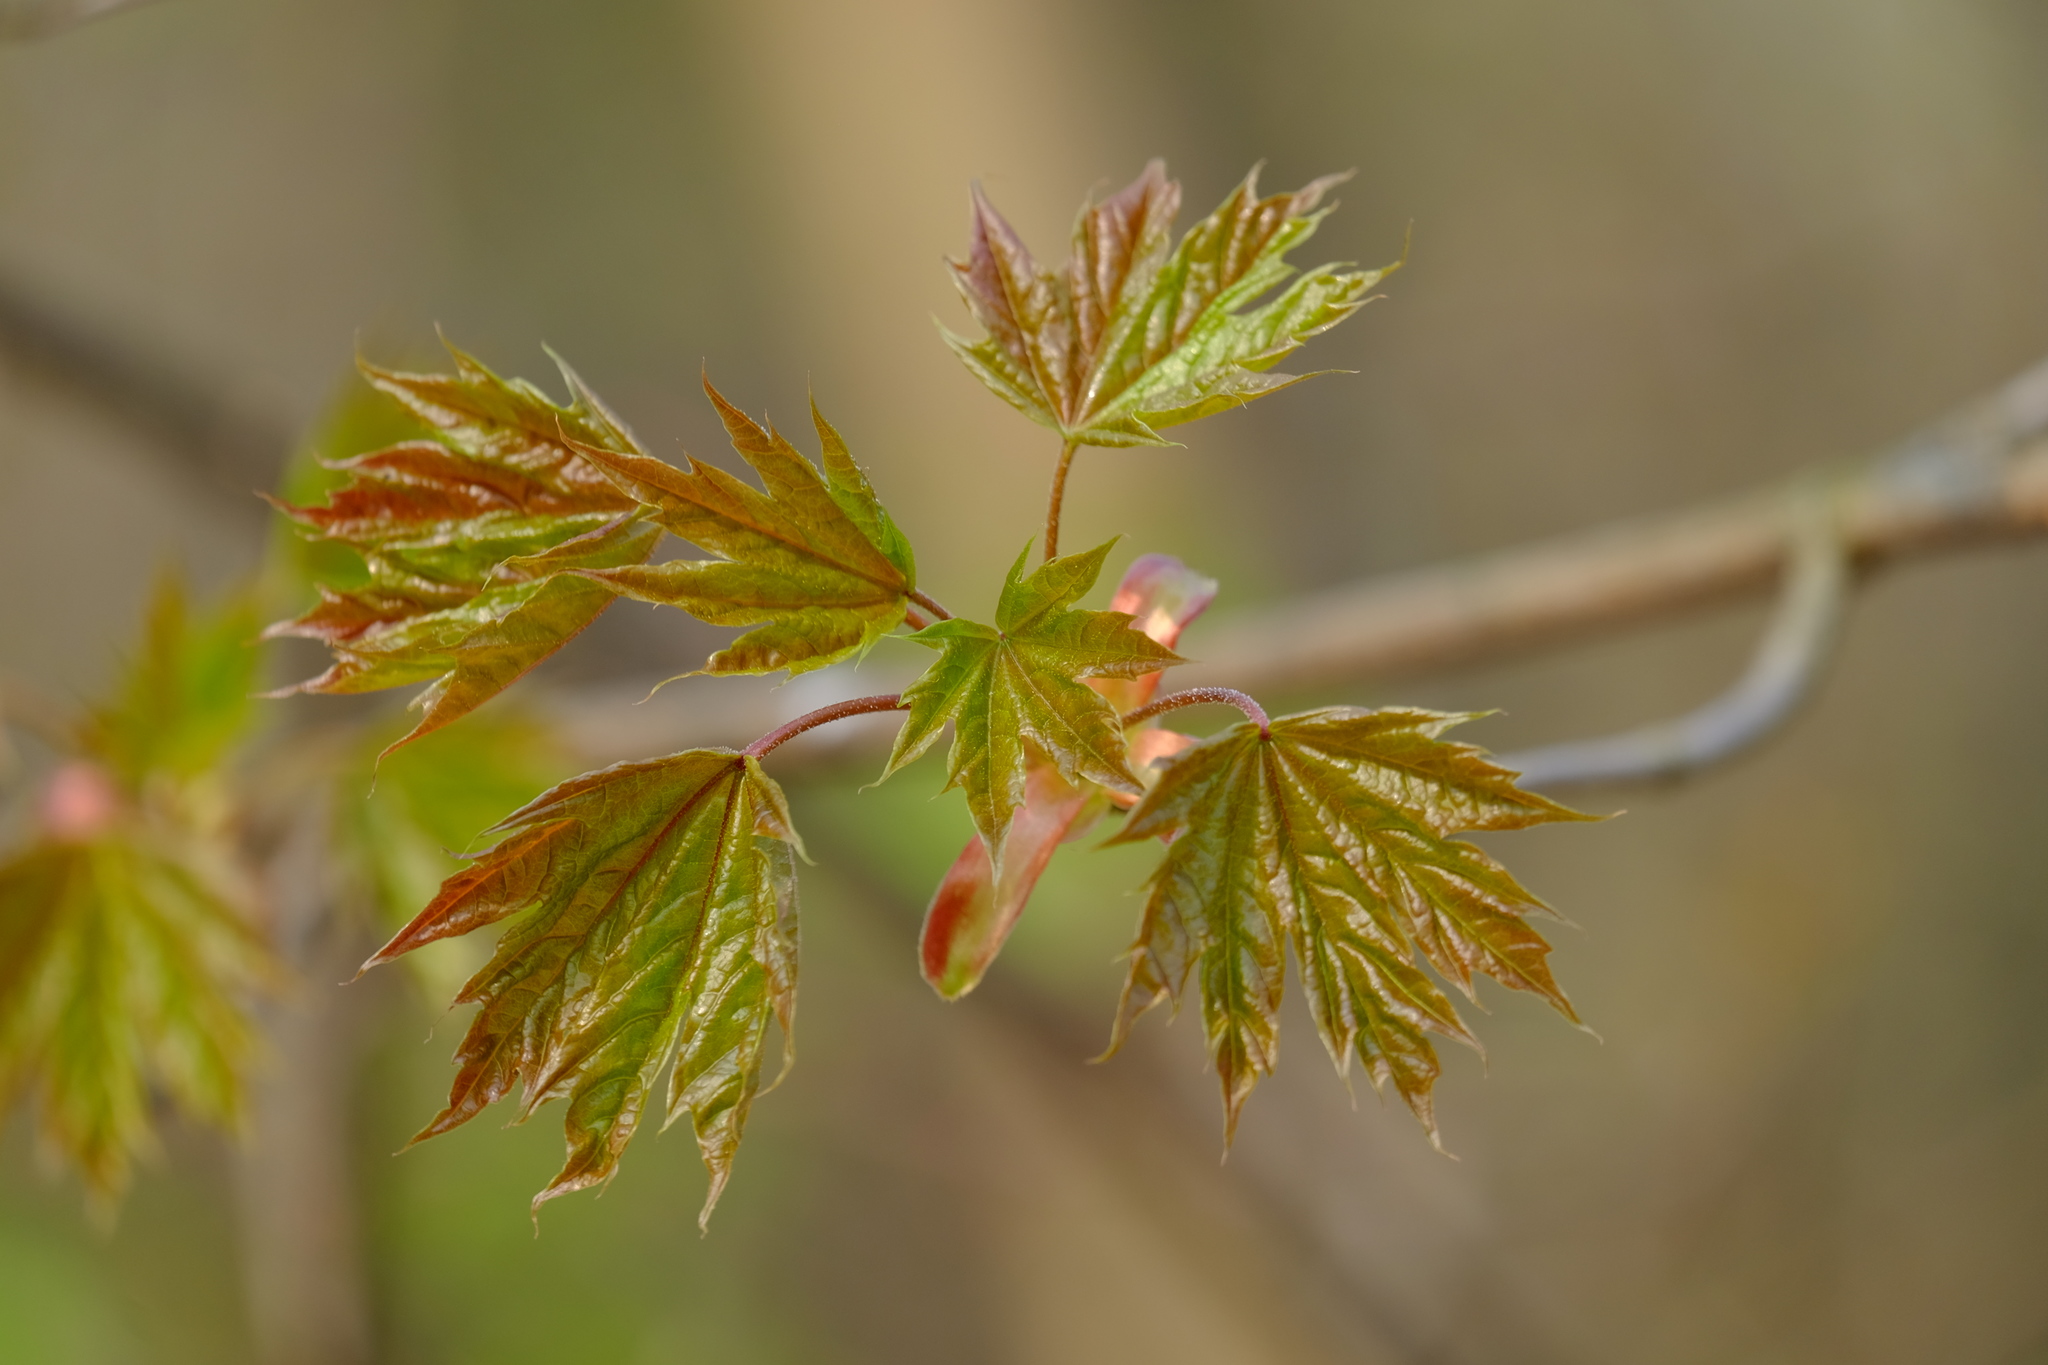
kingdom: Plantae
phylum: Tracheophyta
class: Magnoliopsida
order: Sapindales
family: Sapindaceae
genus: Acer
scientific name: Acer platanoides
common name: Norway maple
